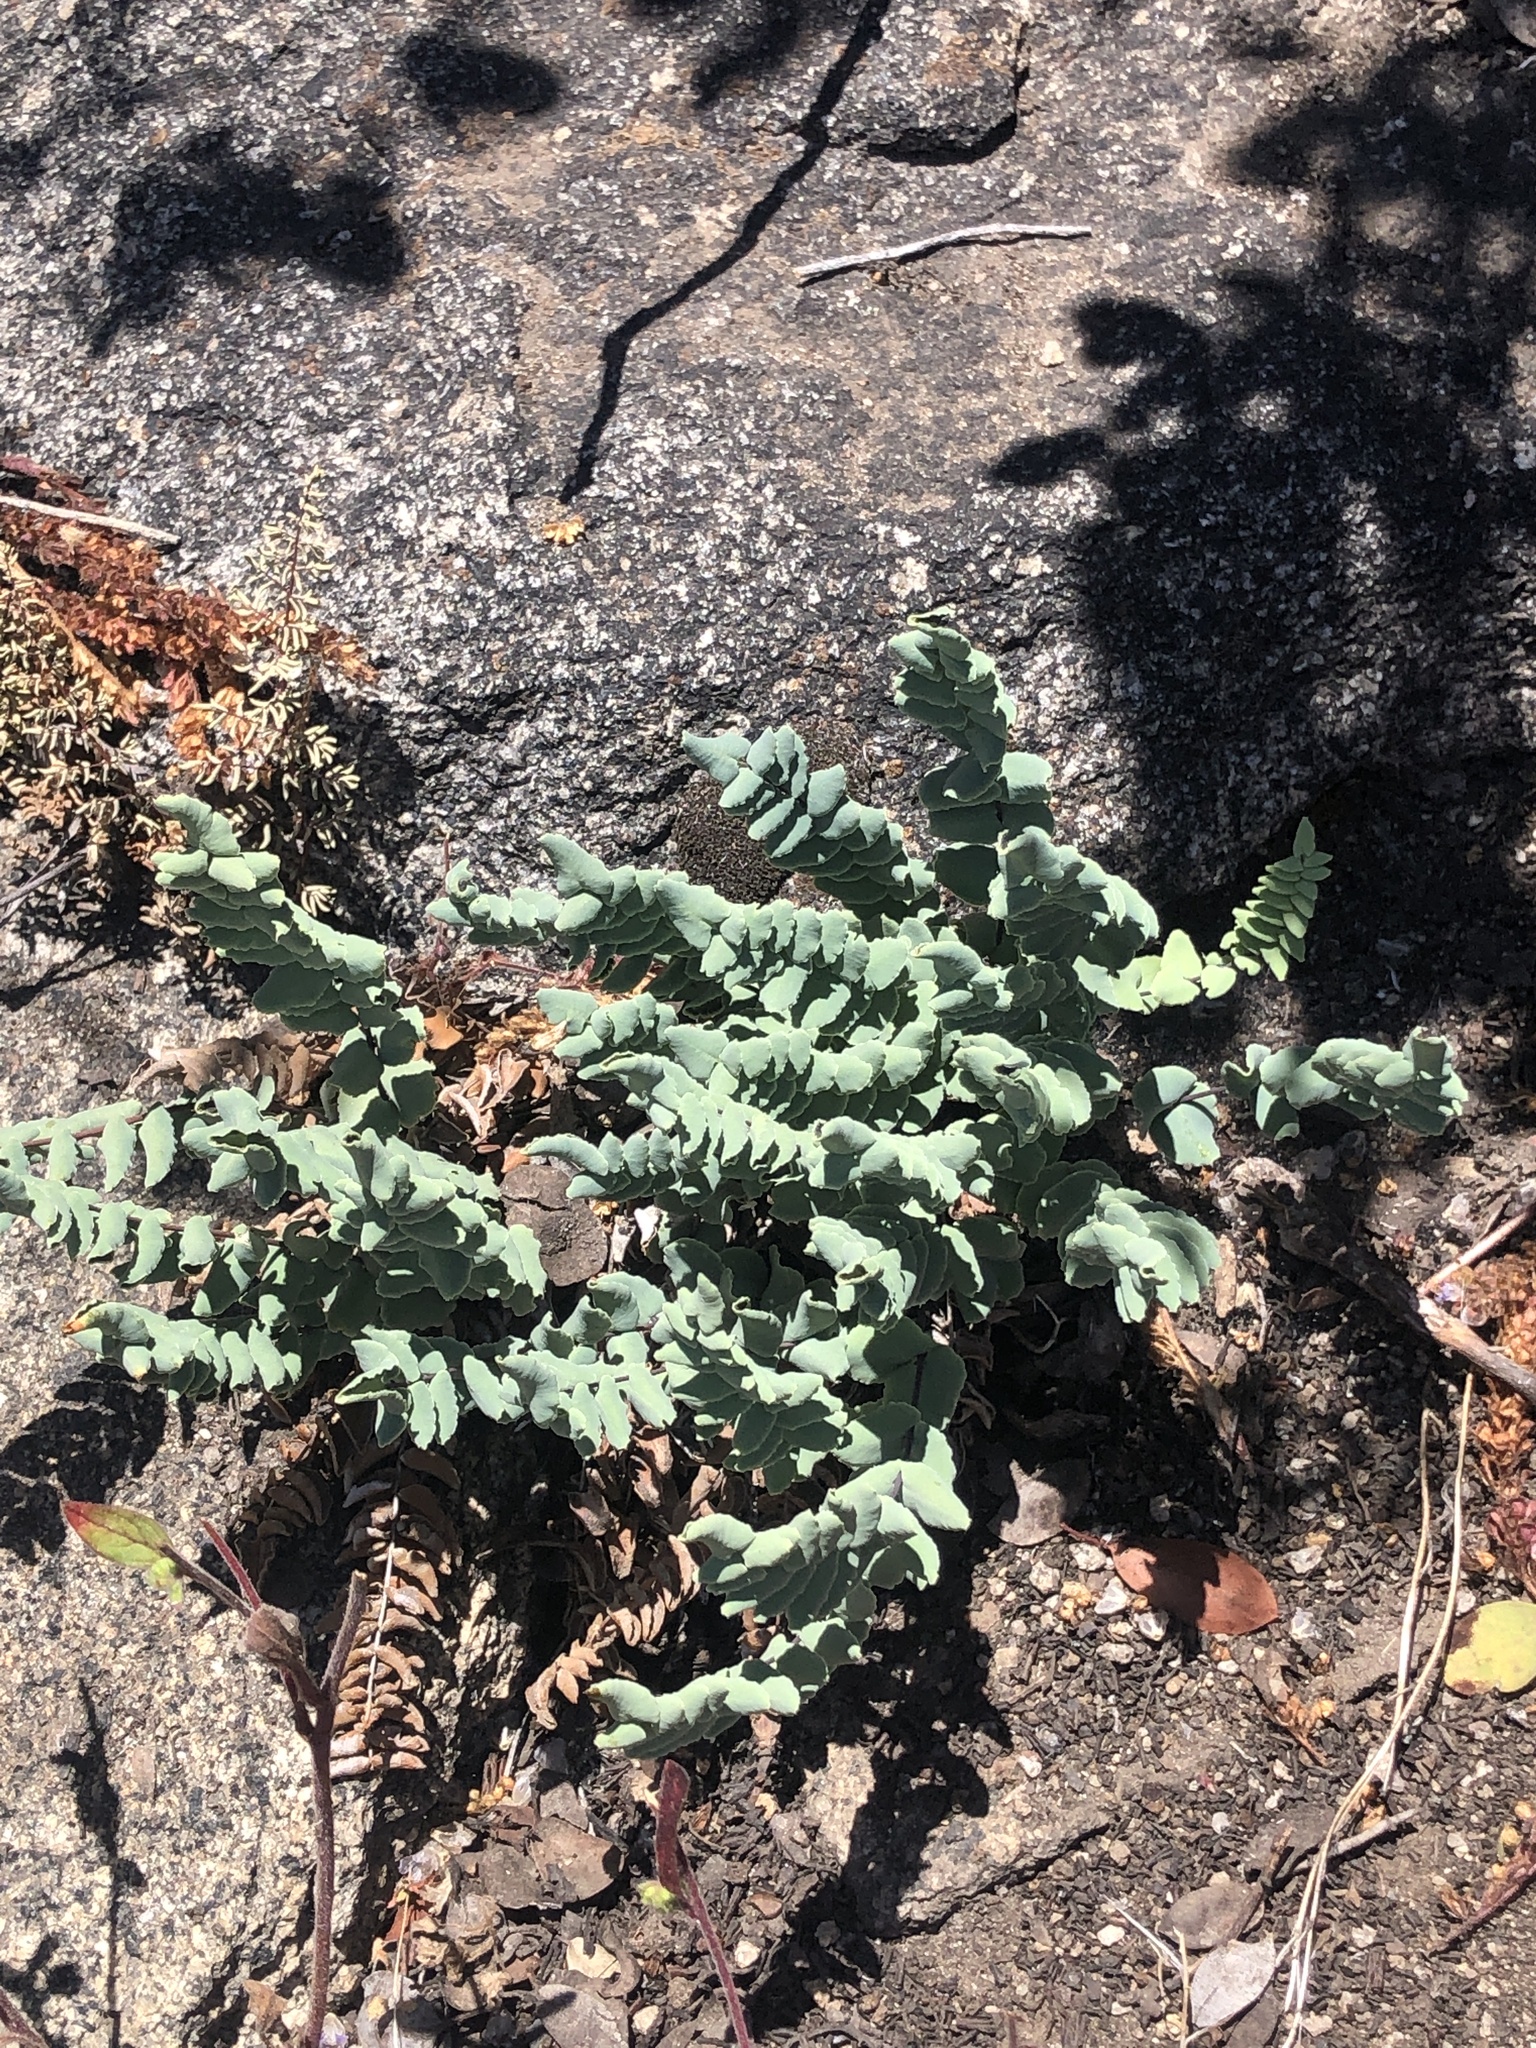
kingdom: Plantae
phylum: Tracheophyta
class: Polypodiopsida
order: Polypodiales
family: Pteridaceae
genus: Pellaea
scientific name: Pellaea bridgesii
